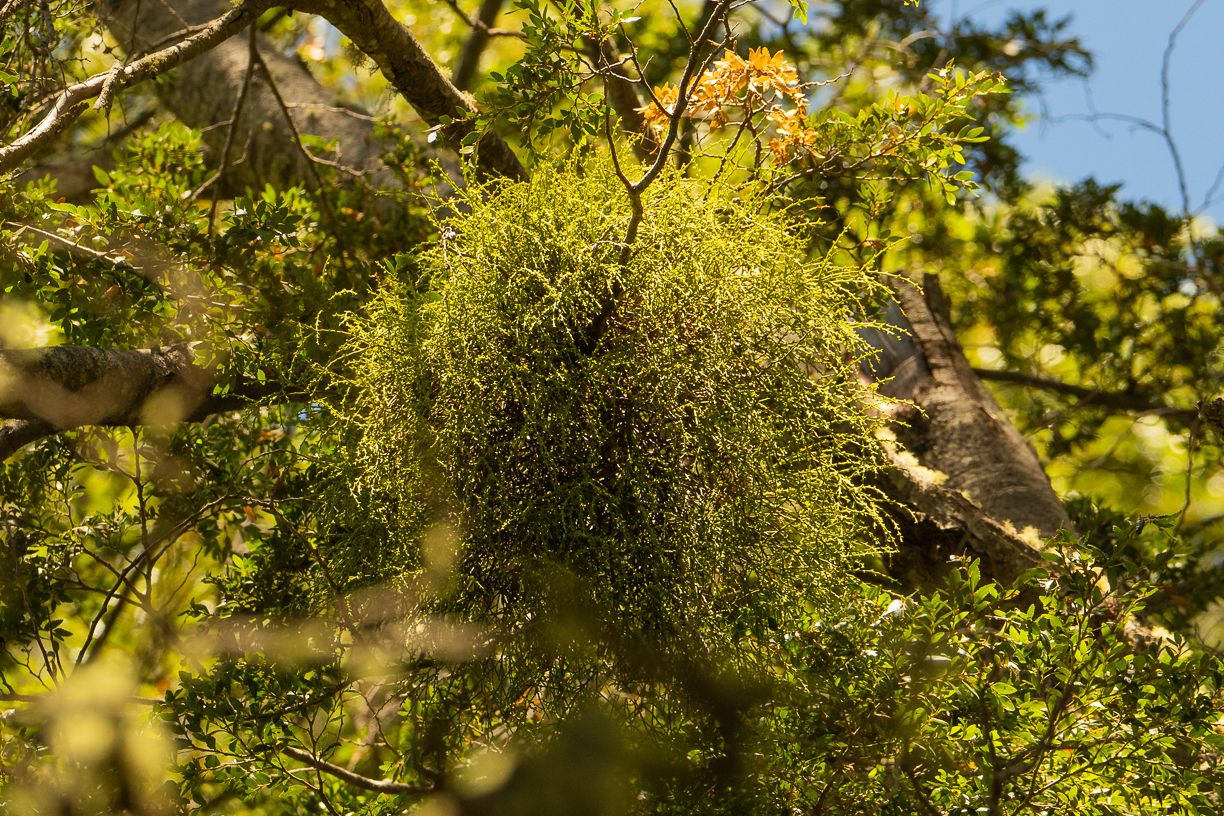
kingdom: Plantae
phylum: Tracheophyta
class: Magnoliopsida
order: Santalales
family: Misodendraceae
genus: Misodendrum
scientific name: Misodendrum punctulatum
